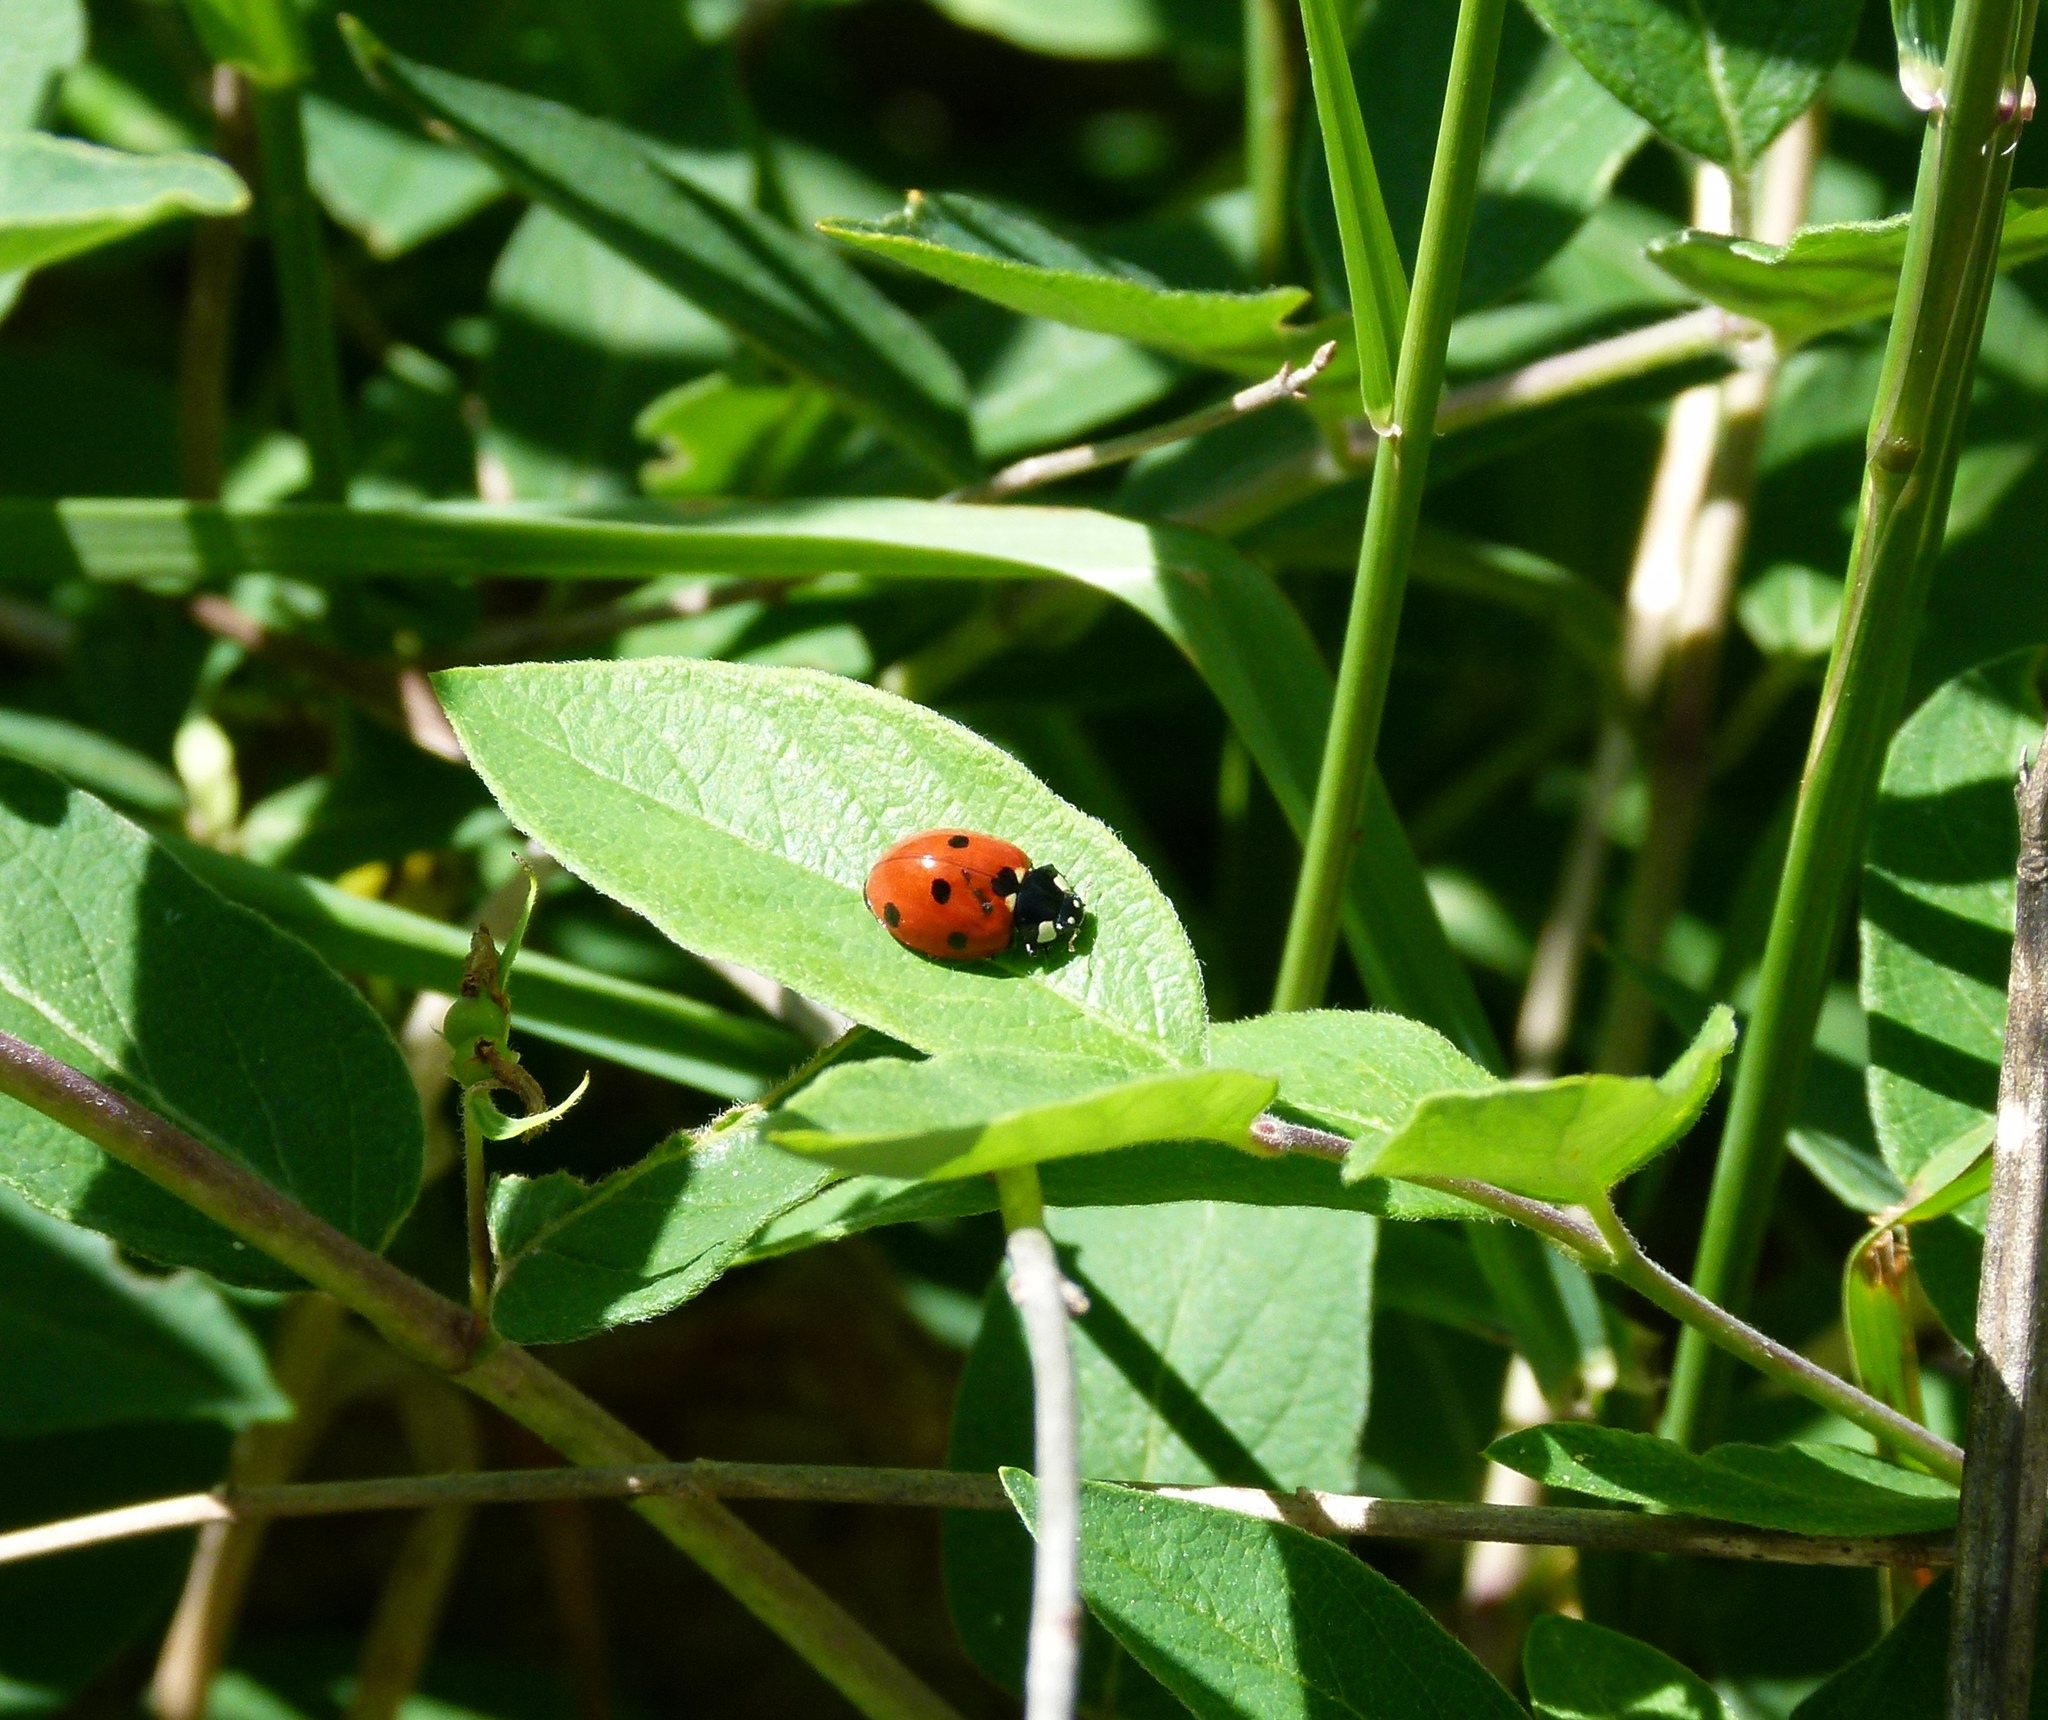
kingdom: Animalia
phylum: Arthropoda
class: Insecta
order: Coleoptera
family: Coccinellidae
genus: Coccinella
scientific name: Coccinella septempunctata
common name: Sevenspotted lady beetle
